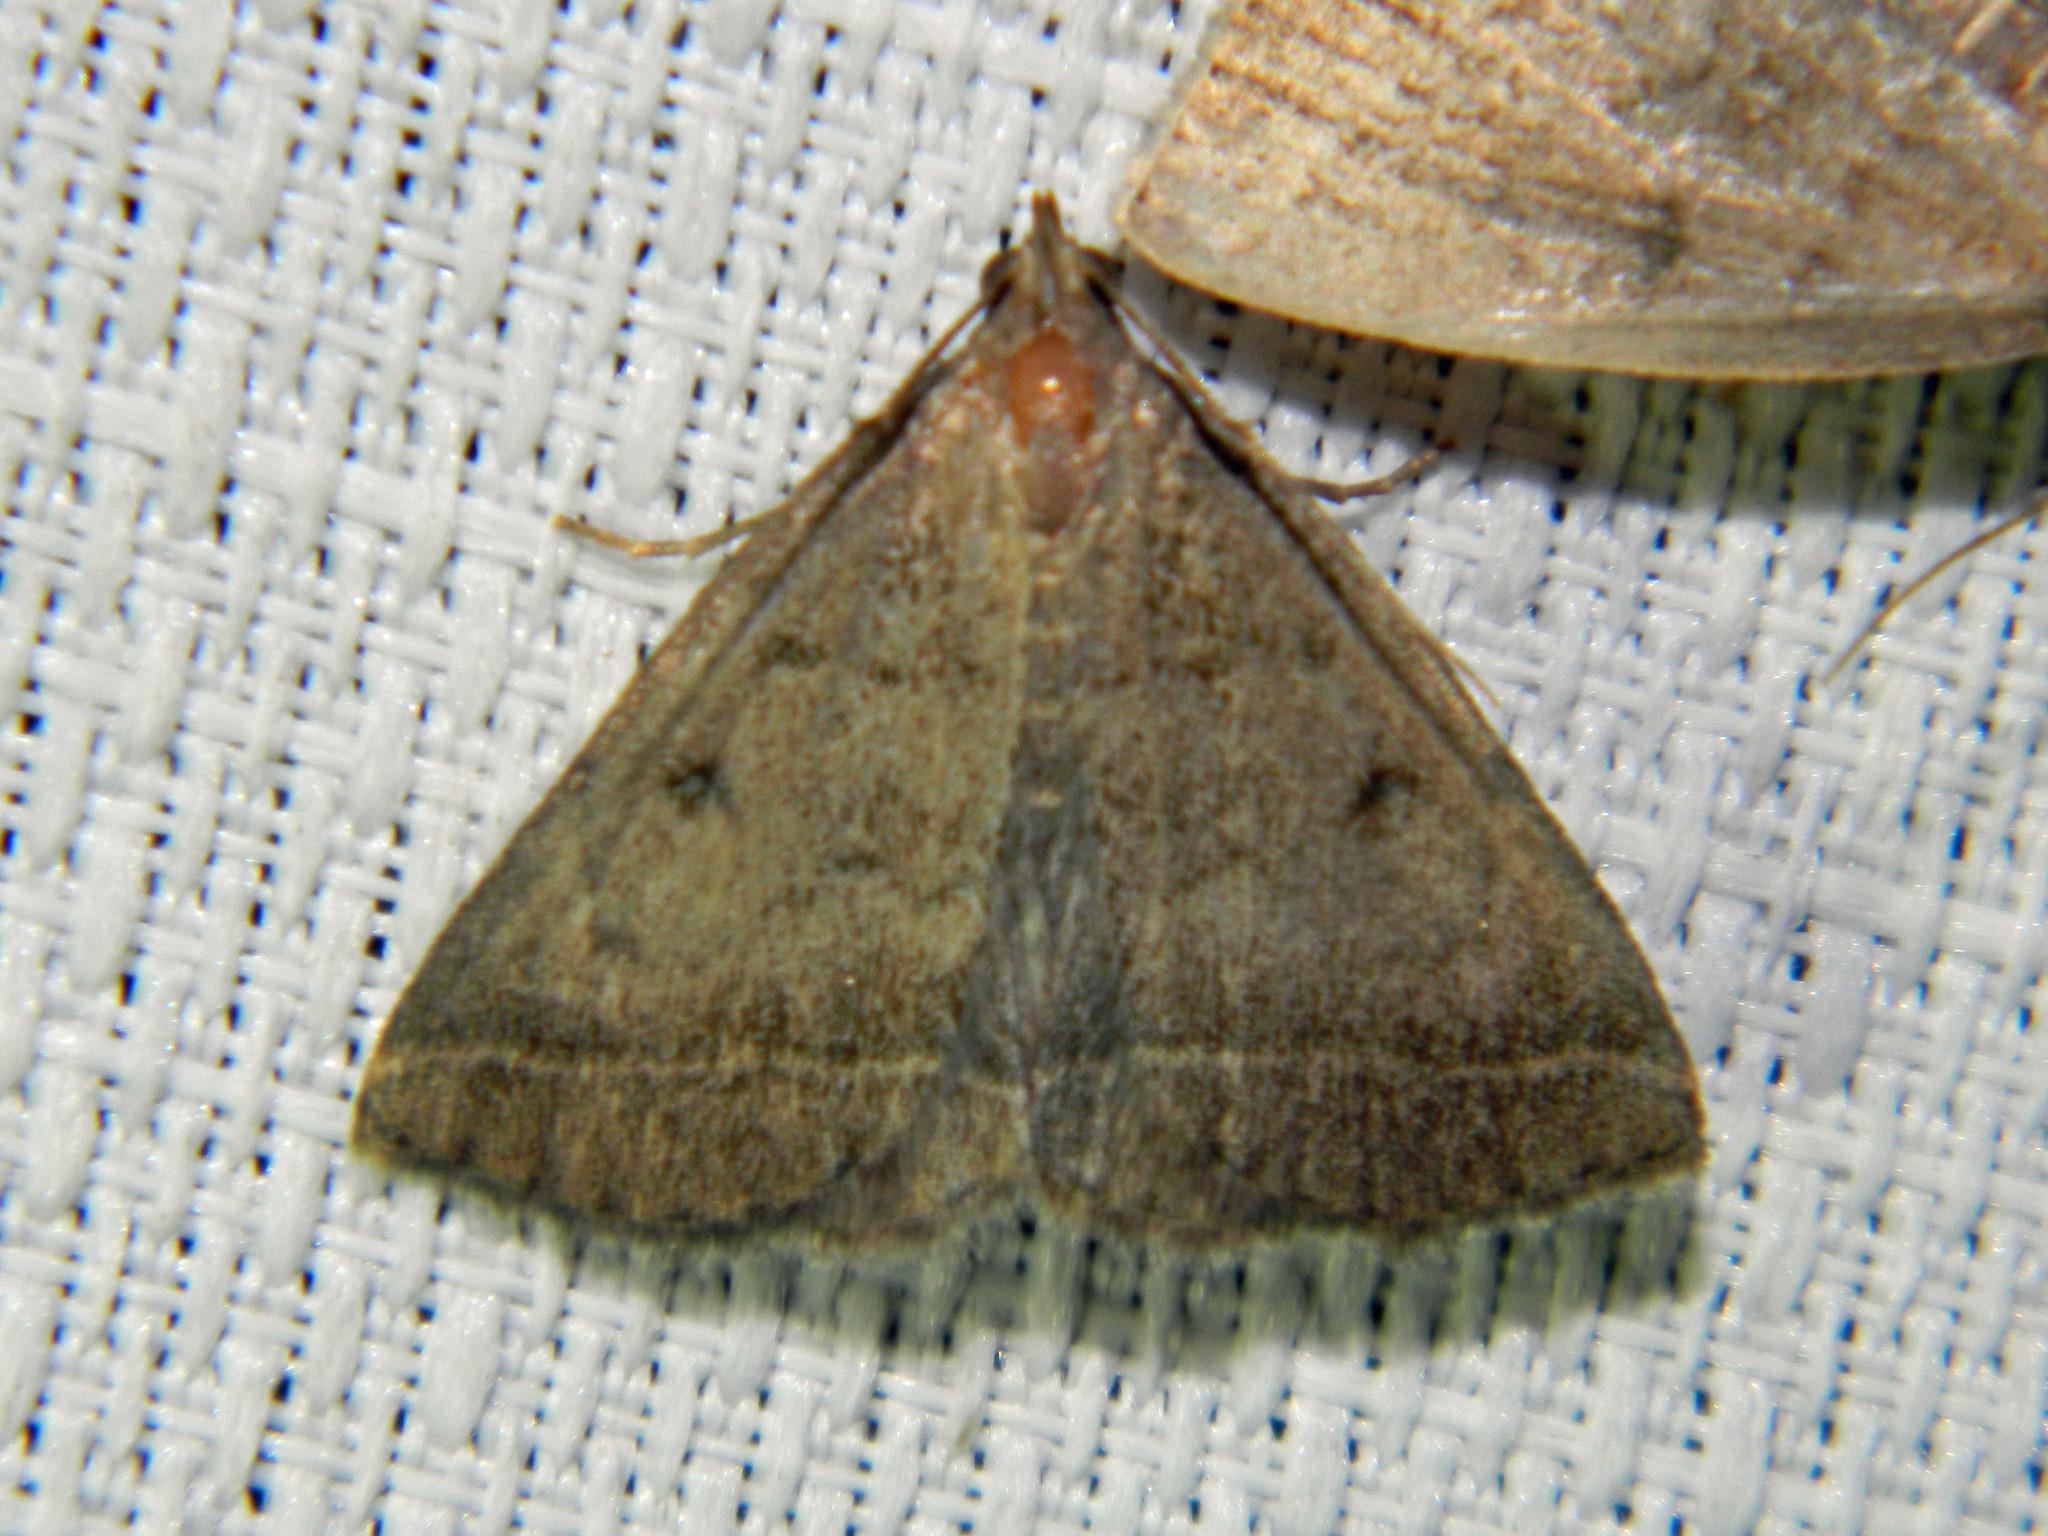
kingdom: Animalia
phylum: Arthropoda
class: Insecta
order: Lepidoptera
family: Erebidae
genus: Zanclognatha
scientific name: Zanclognatha jacchusalis
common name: Yellowish zanclognatha
